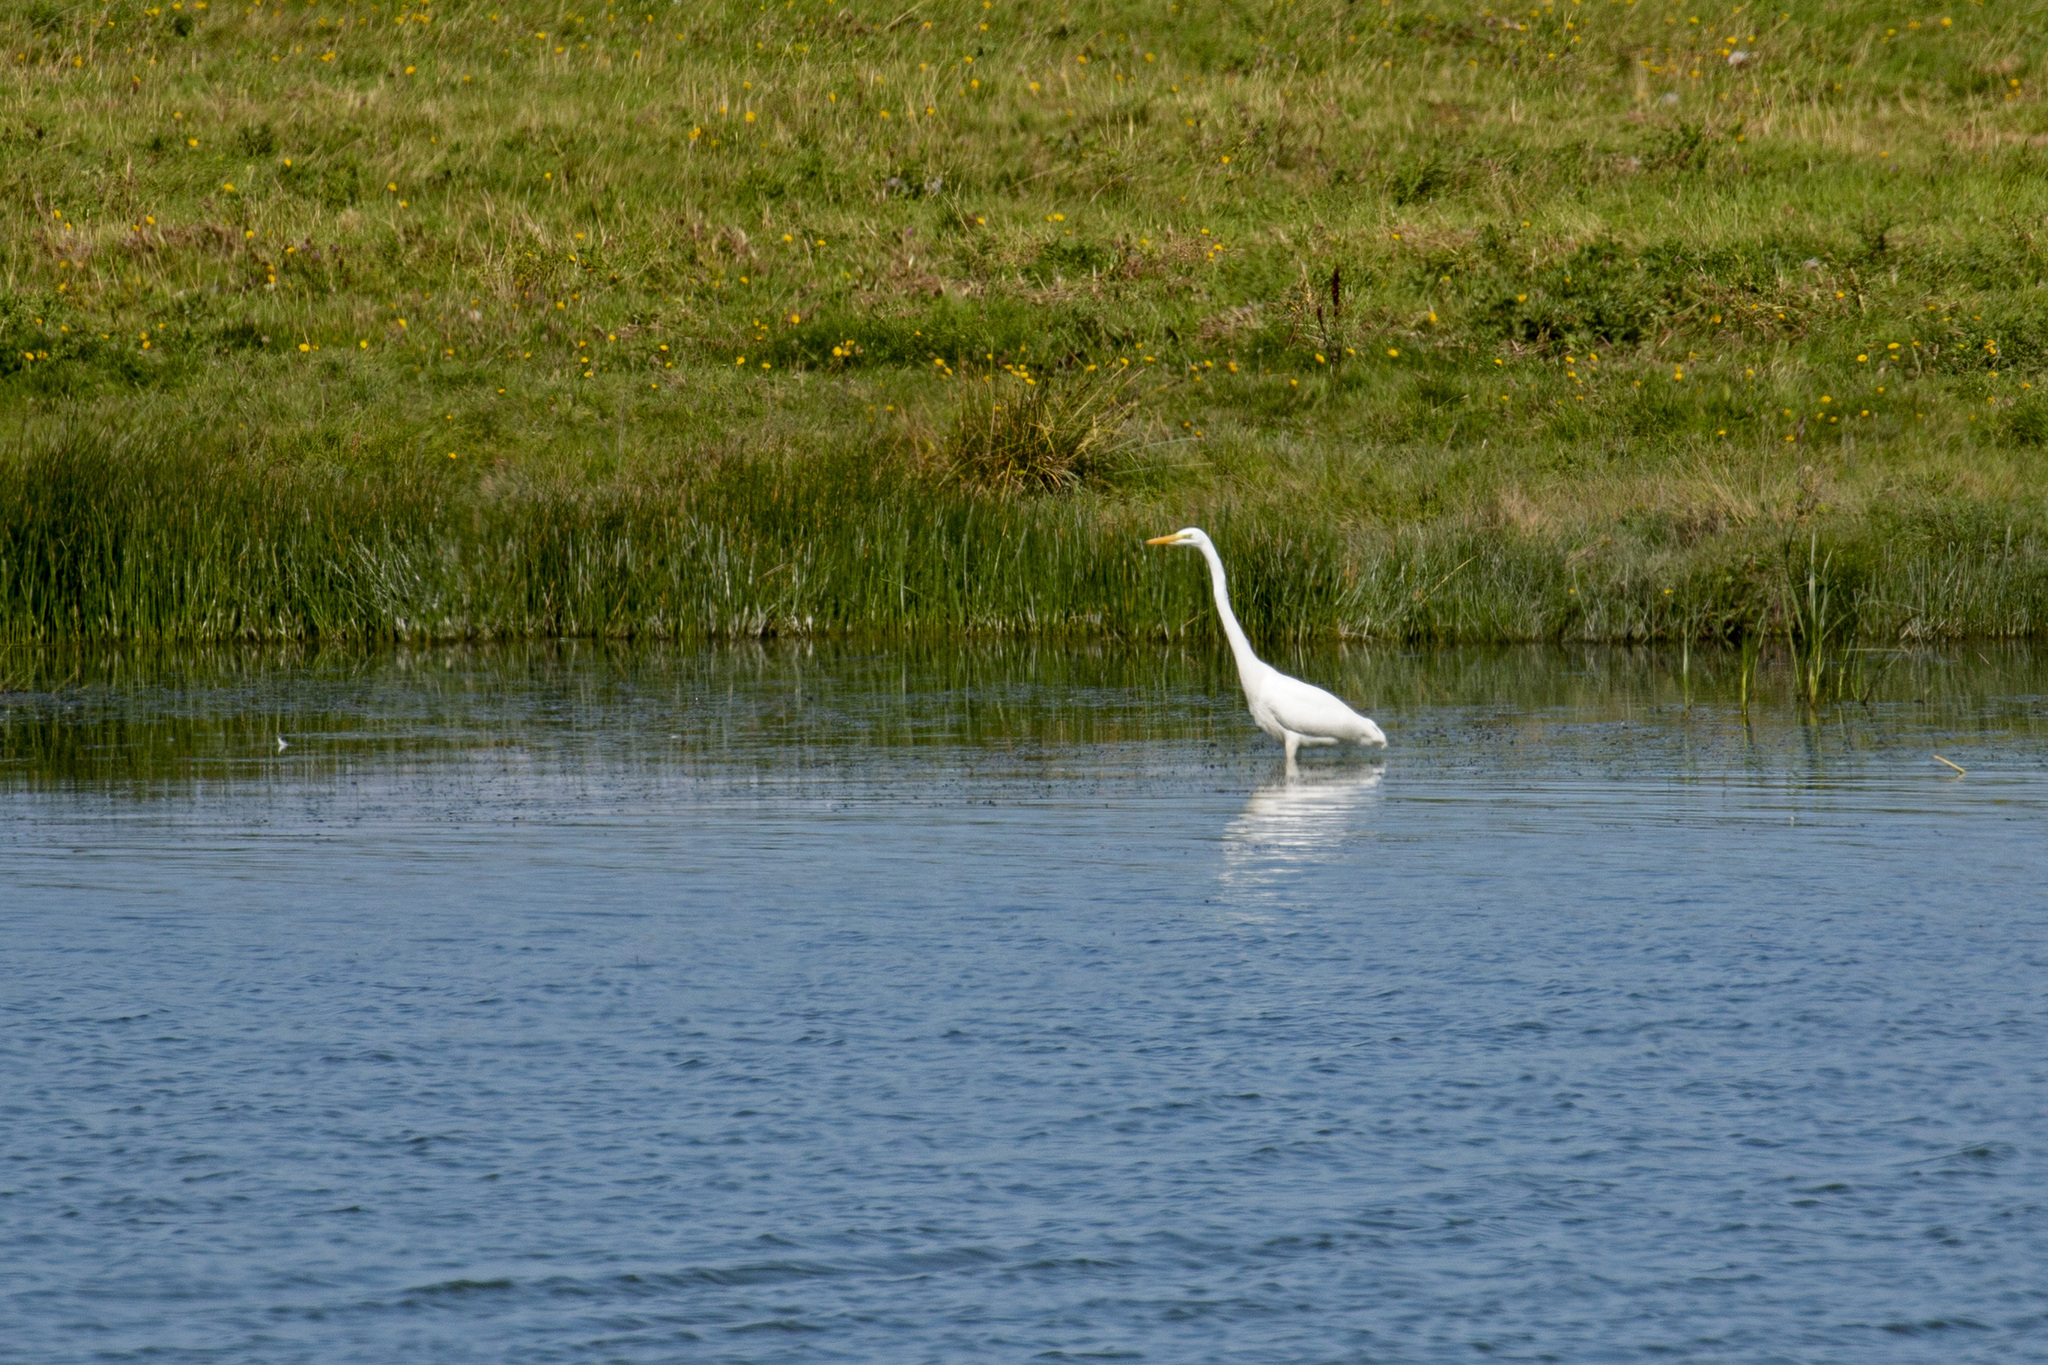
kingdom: Animalia
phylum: Chordata
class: Aves
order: Pelecaniformes
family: Ardeidae
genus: Ardea
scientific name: Ardea alba
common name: Great egret
